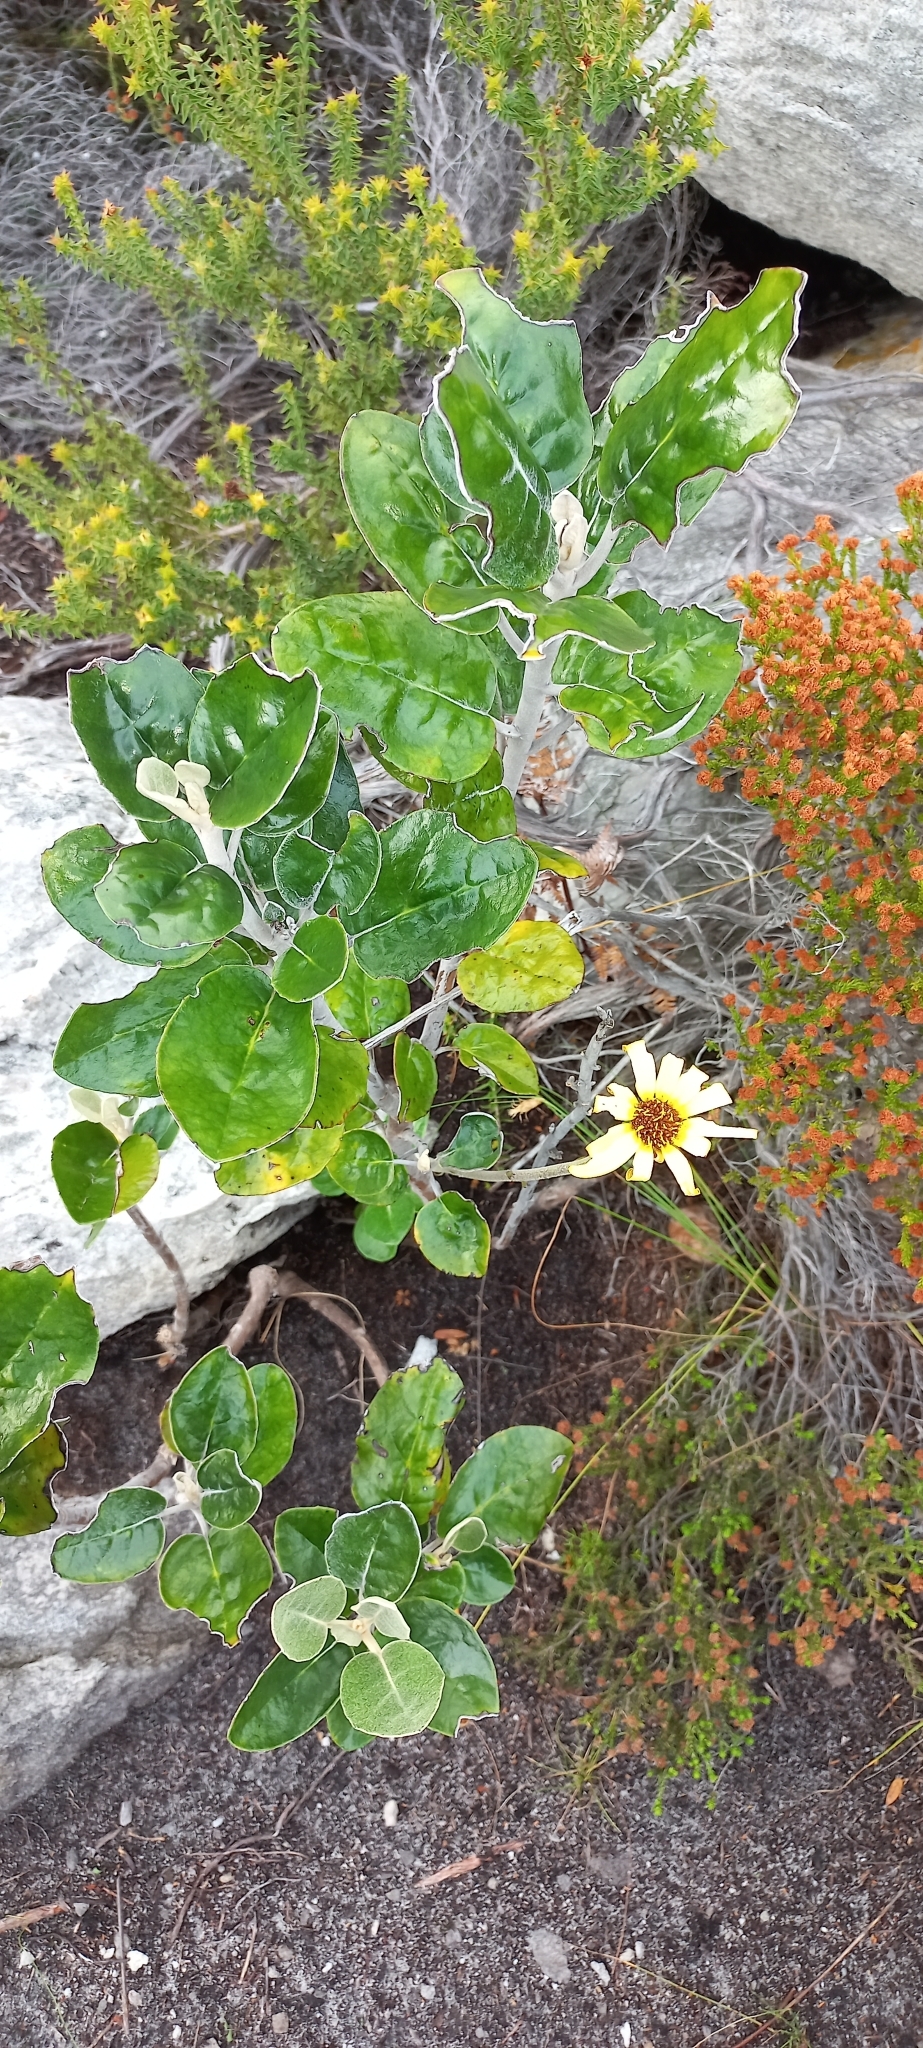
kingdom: Plantae
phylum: Tracheophyta
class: Magnoliopsida
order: Asterales
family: Asteraceae
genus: Capelio
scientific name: Capelio tabularis
